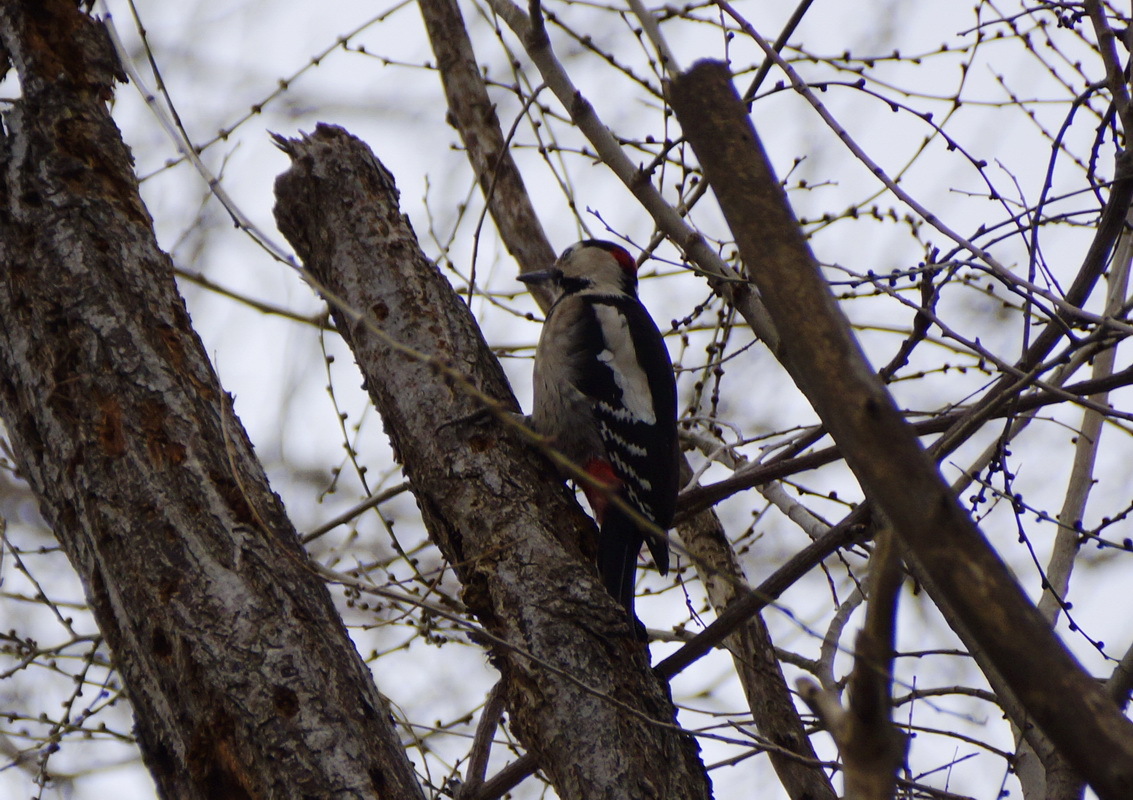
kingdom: Animalia
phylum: Chordata
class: Aves
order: Piciformes
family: Picidae
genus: Dendrocopos
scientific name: Dendrocopos syriacus
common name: Syrian woodpecker
